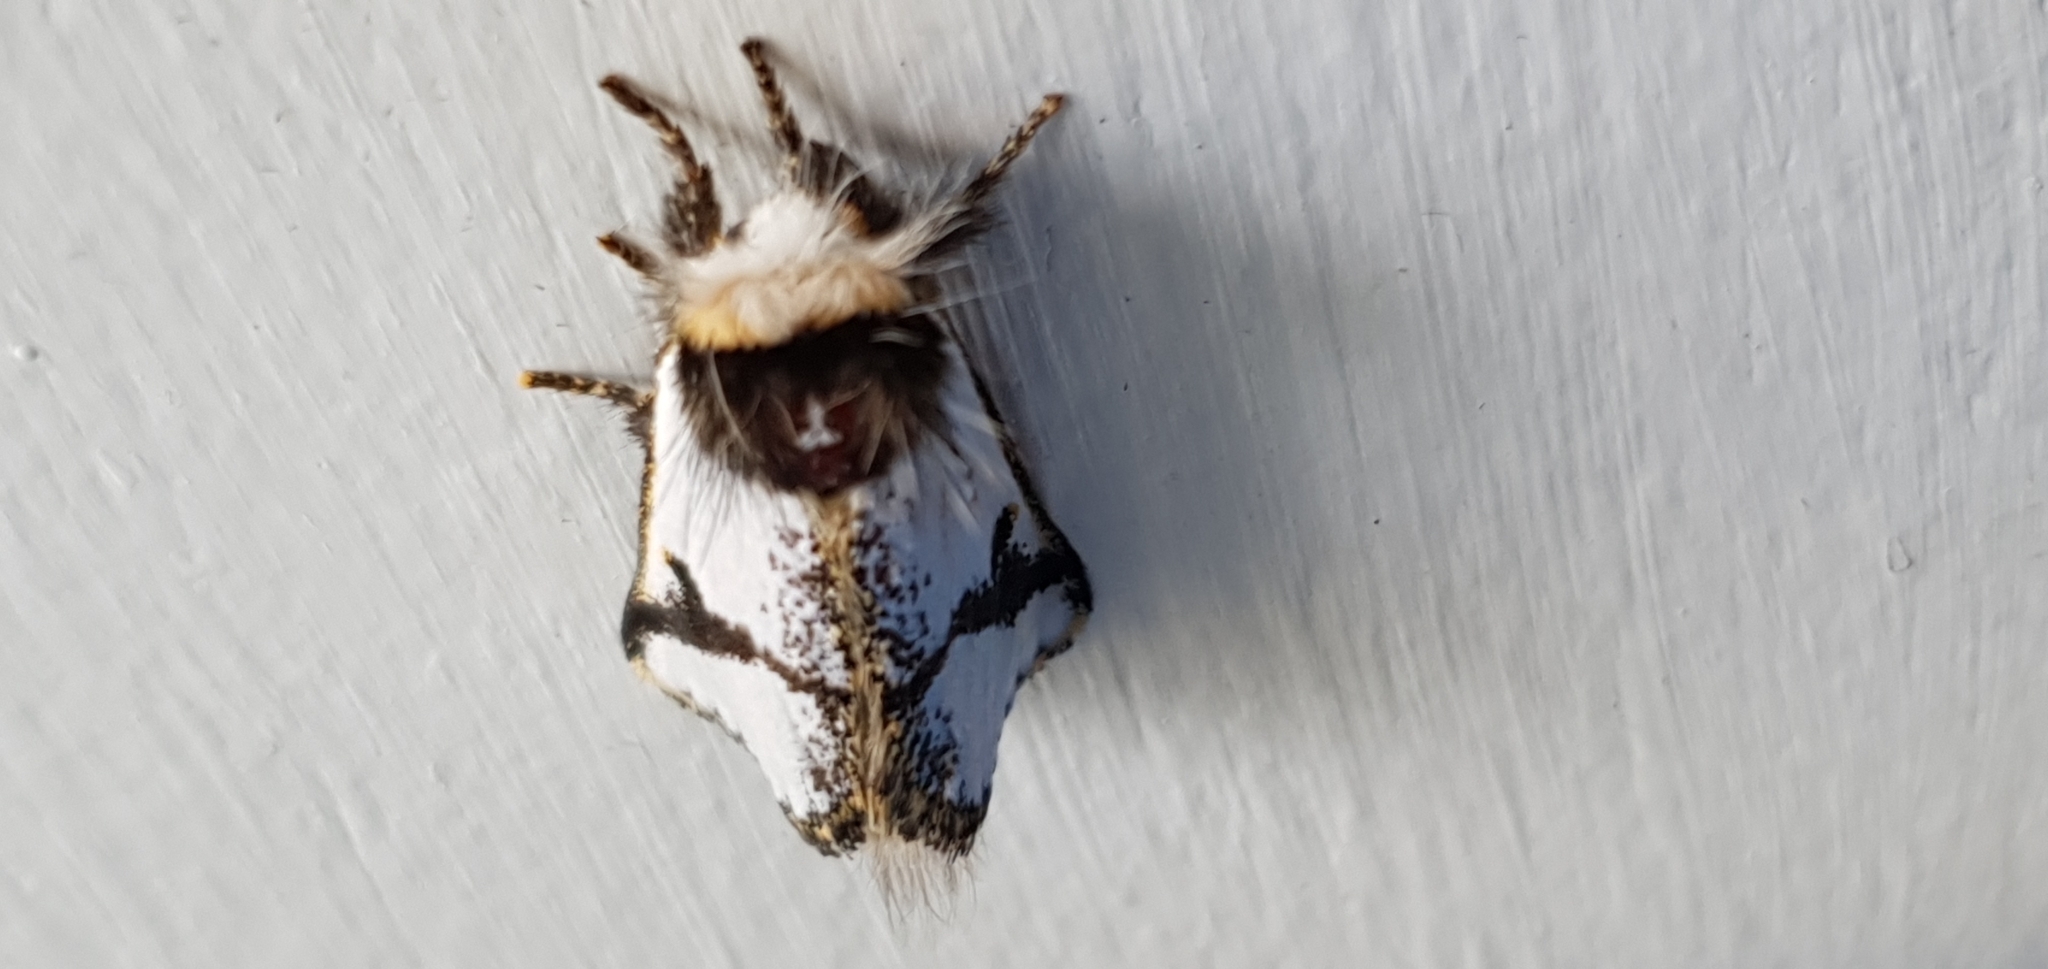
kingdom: Animalia
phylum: Arthropoda
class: Insecta
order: Lepidoptera
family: Notodontidae
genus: Epicoma
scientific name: Epicoma melanospila
